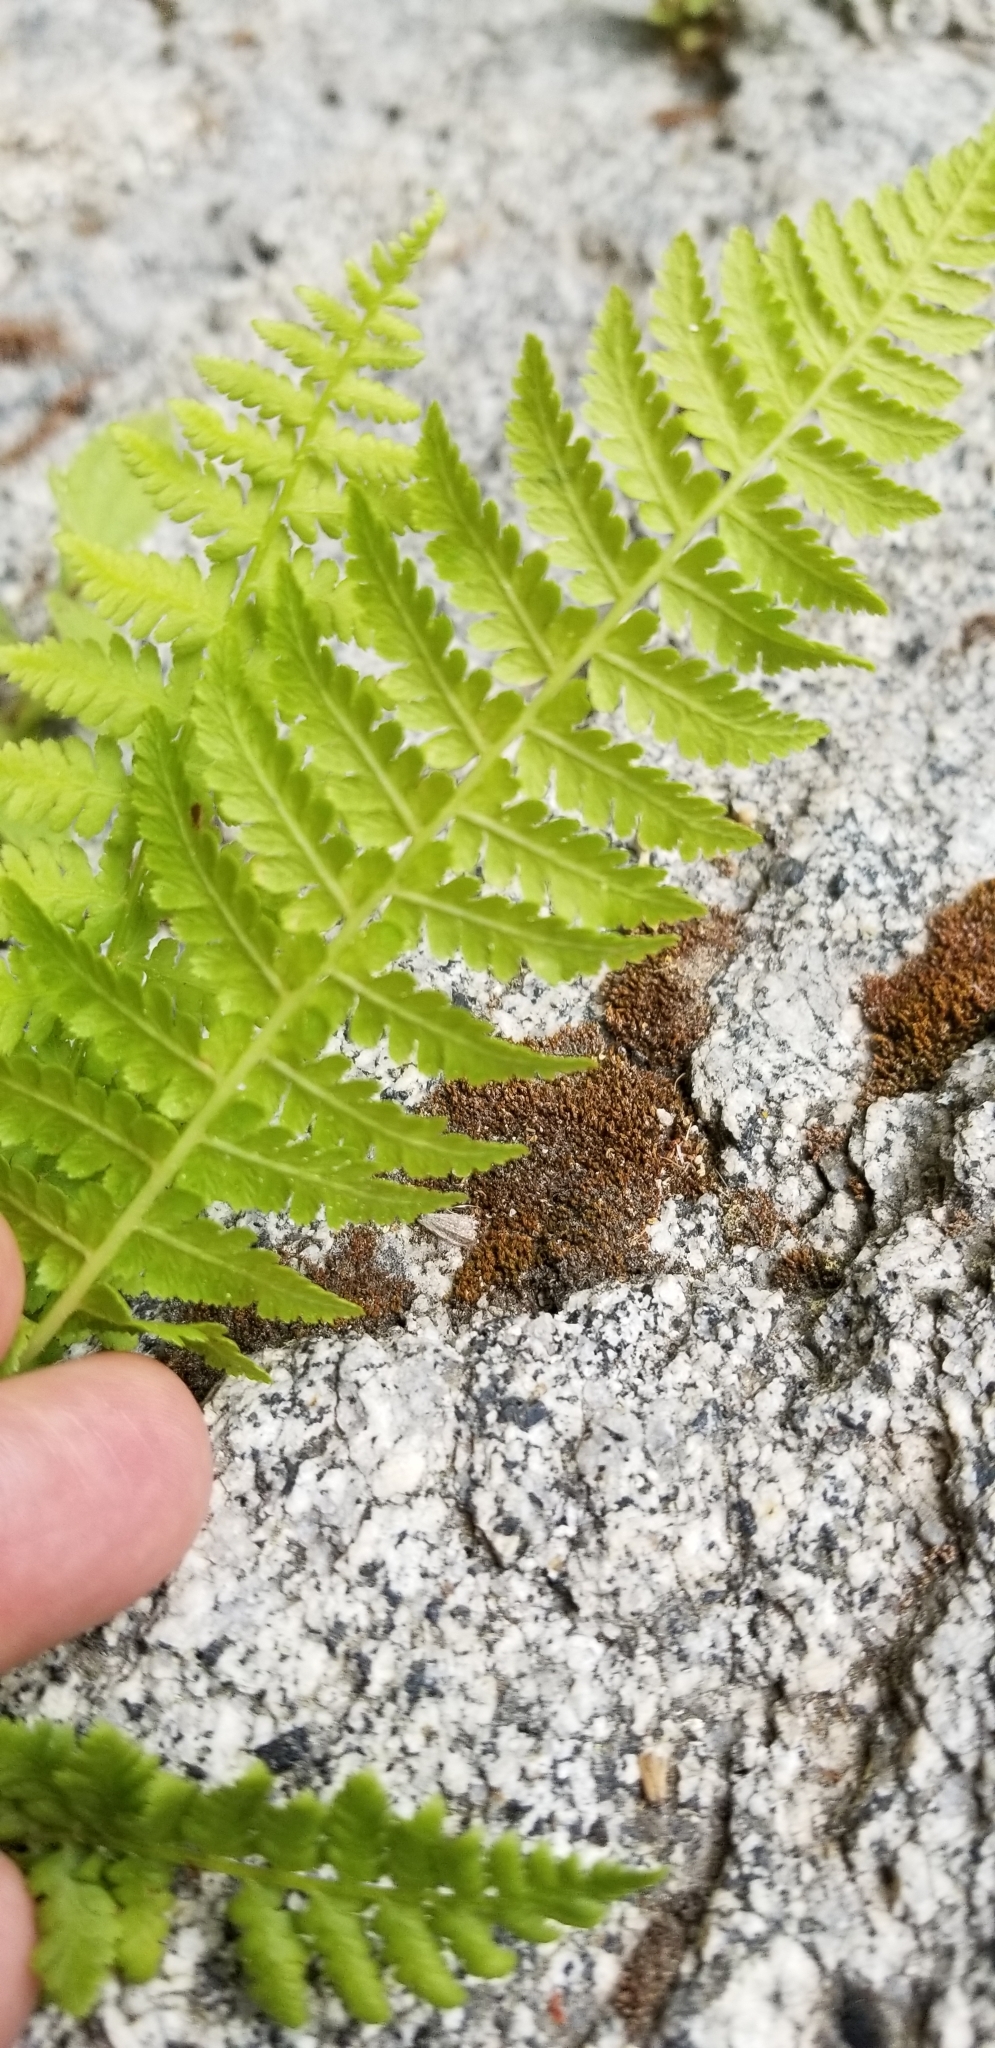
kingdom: Plantae
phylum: Tracheophyta
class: Polypodiopsida
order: Polypodiales
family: Athyriaceae
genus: Athyrium
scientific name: Athyrium filix-femina
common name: Lady fern
